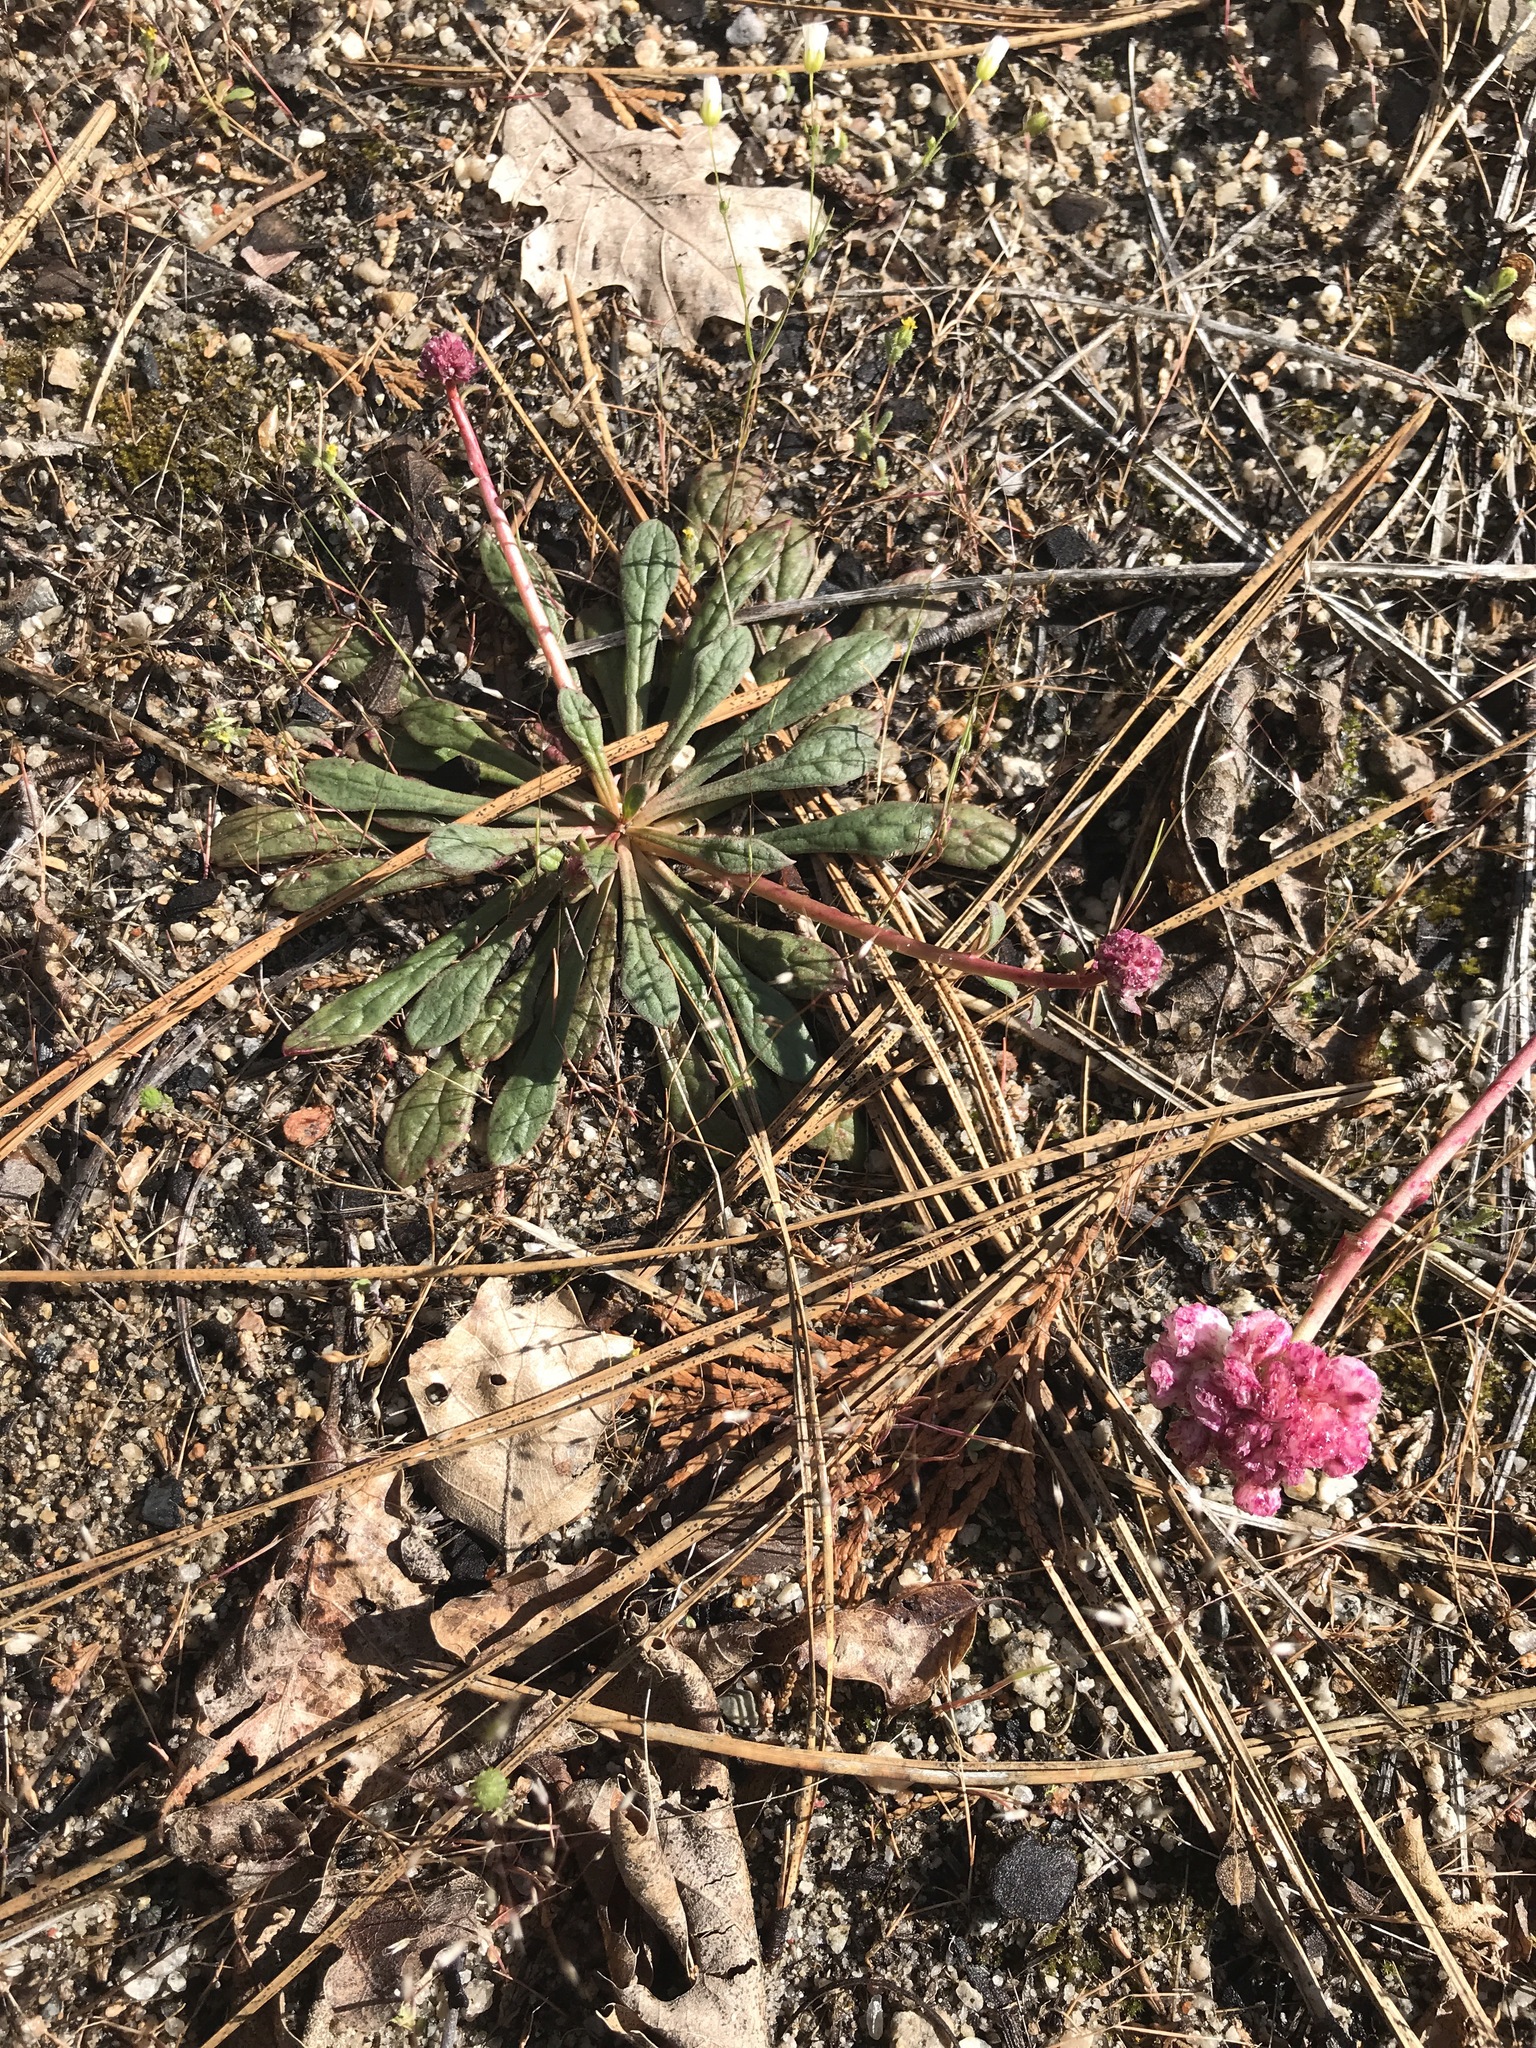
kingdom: Plantae
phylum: Tracheophyta
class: Magnoliopsida
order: Caryophyllales
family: Montiaceae
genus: Calyptridium
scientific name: Calyptridium monospermum
